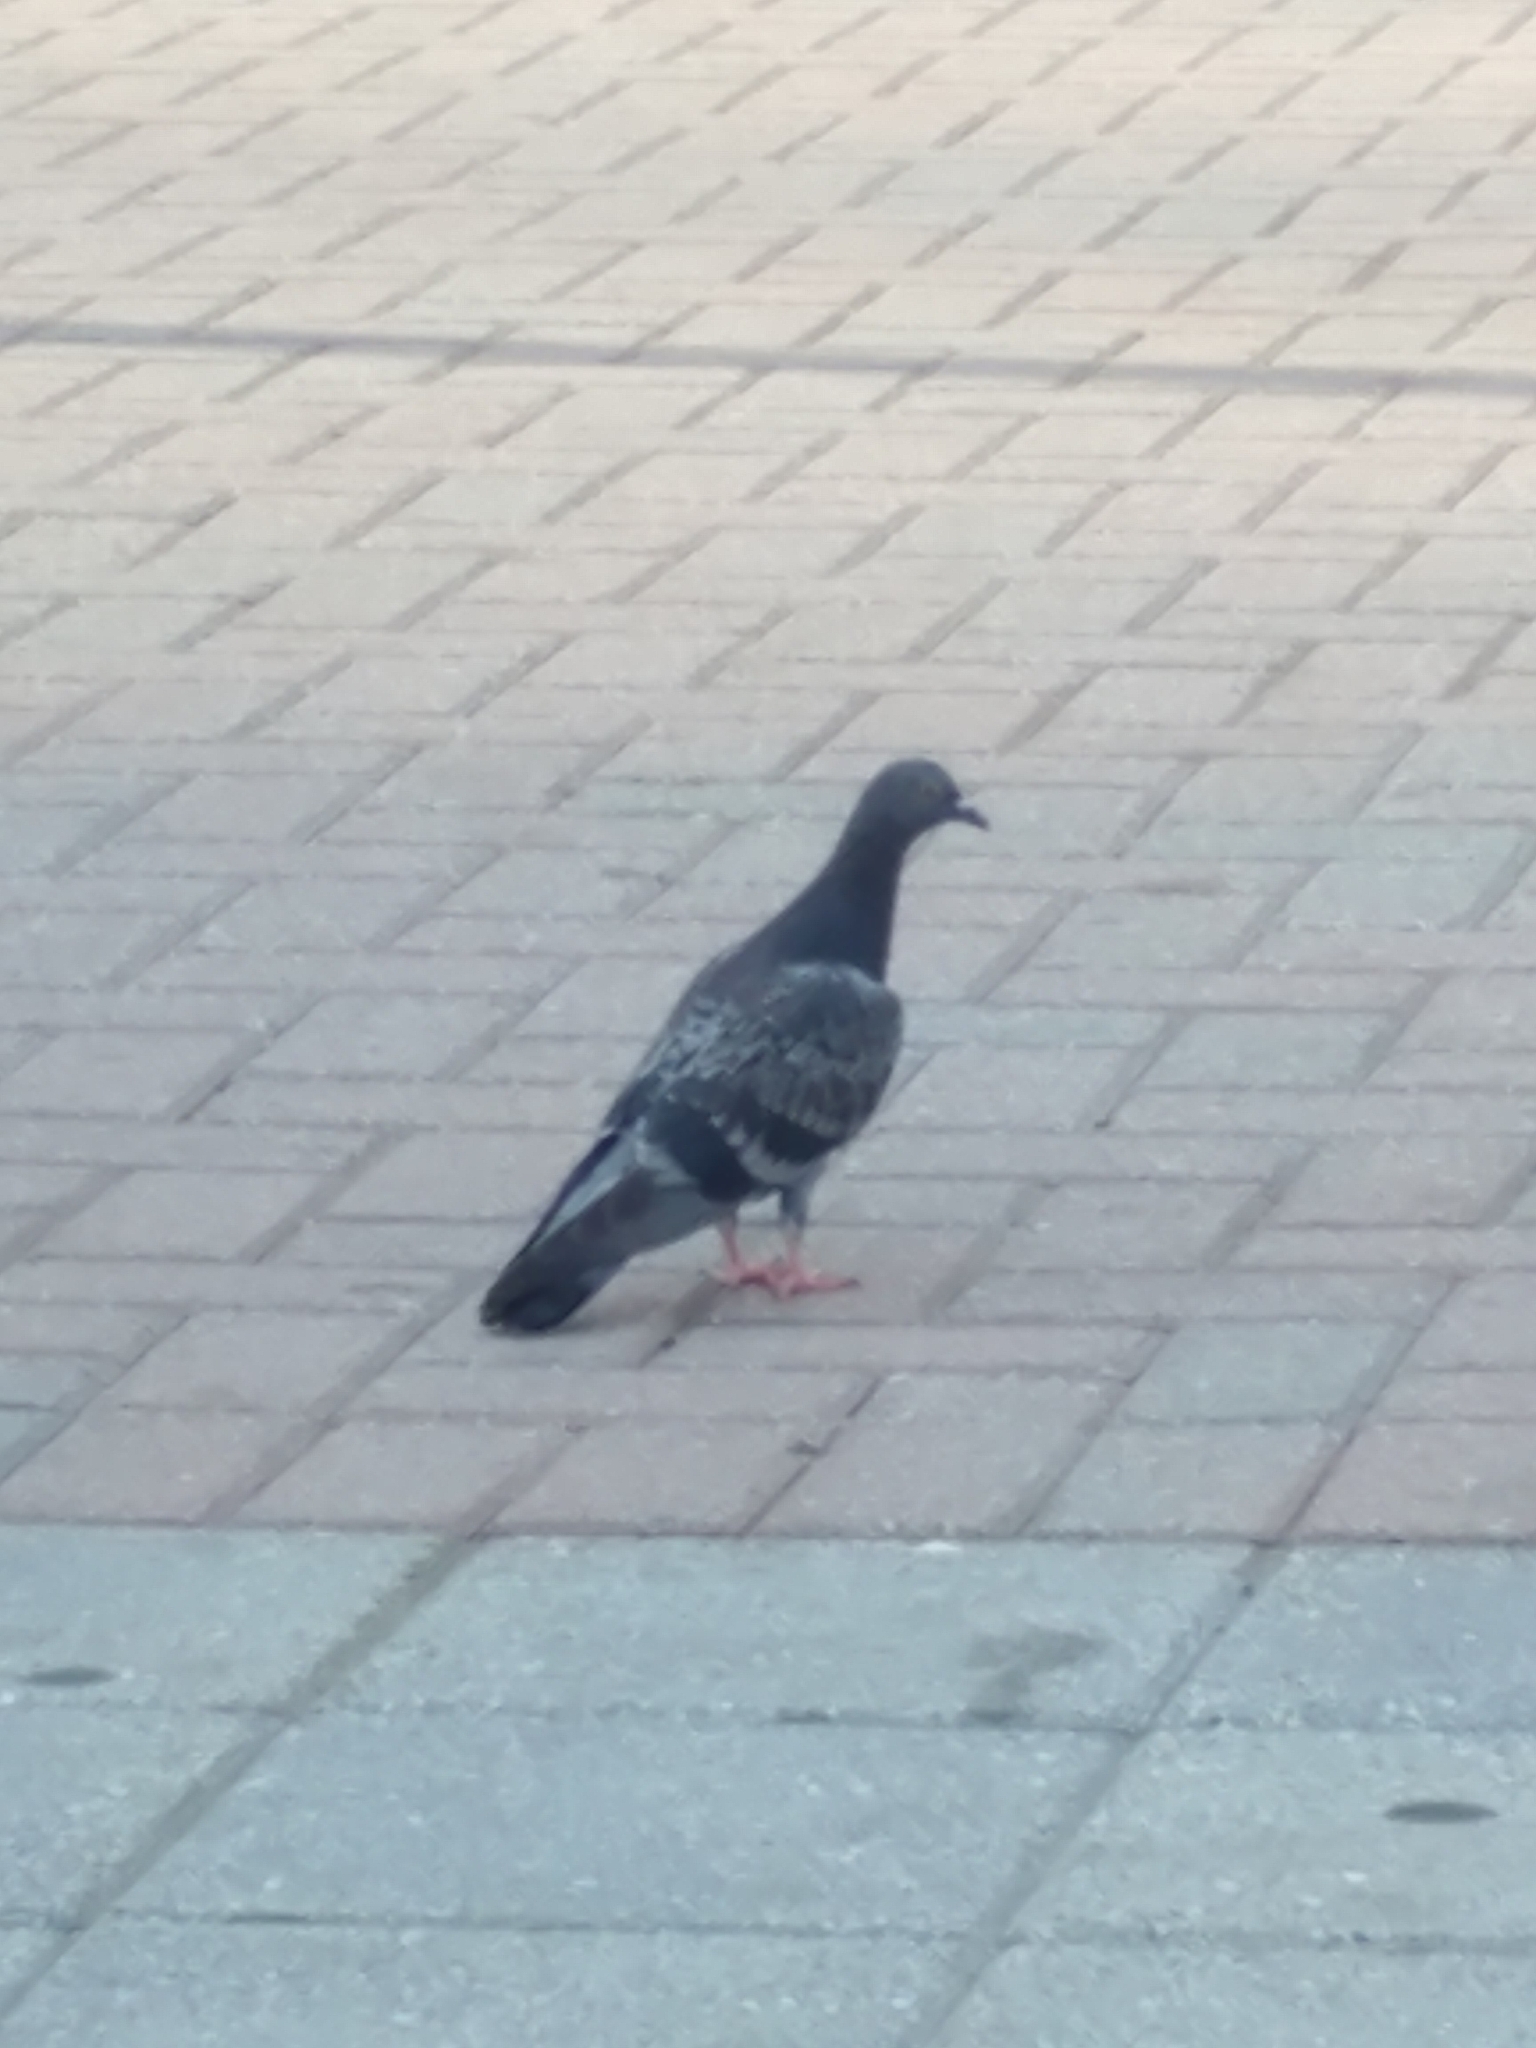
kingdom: Animalia
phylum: Chordata
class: Aves
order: Columbiformes
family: Columbidae
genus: Columba
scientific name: Columba livia
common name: Rock pigeon
